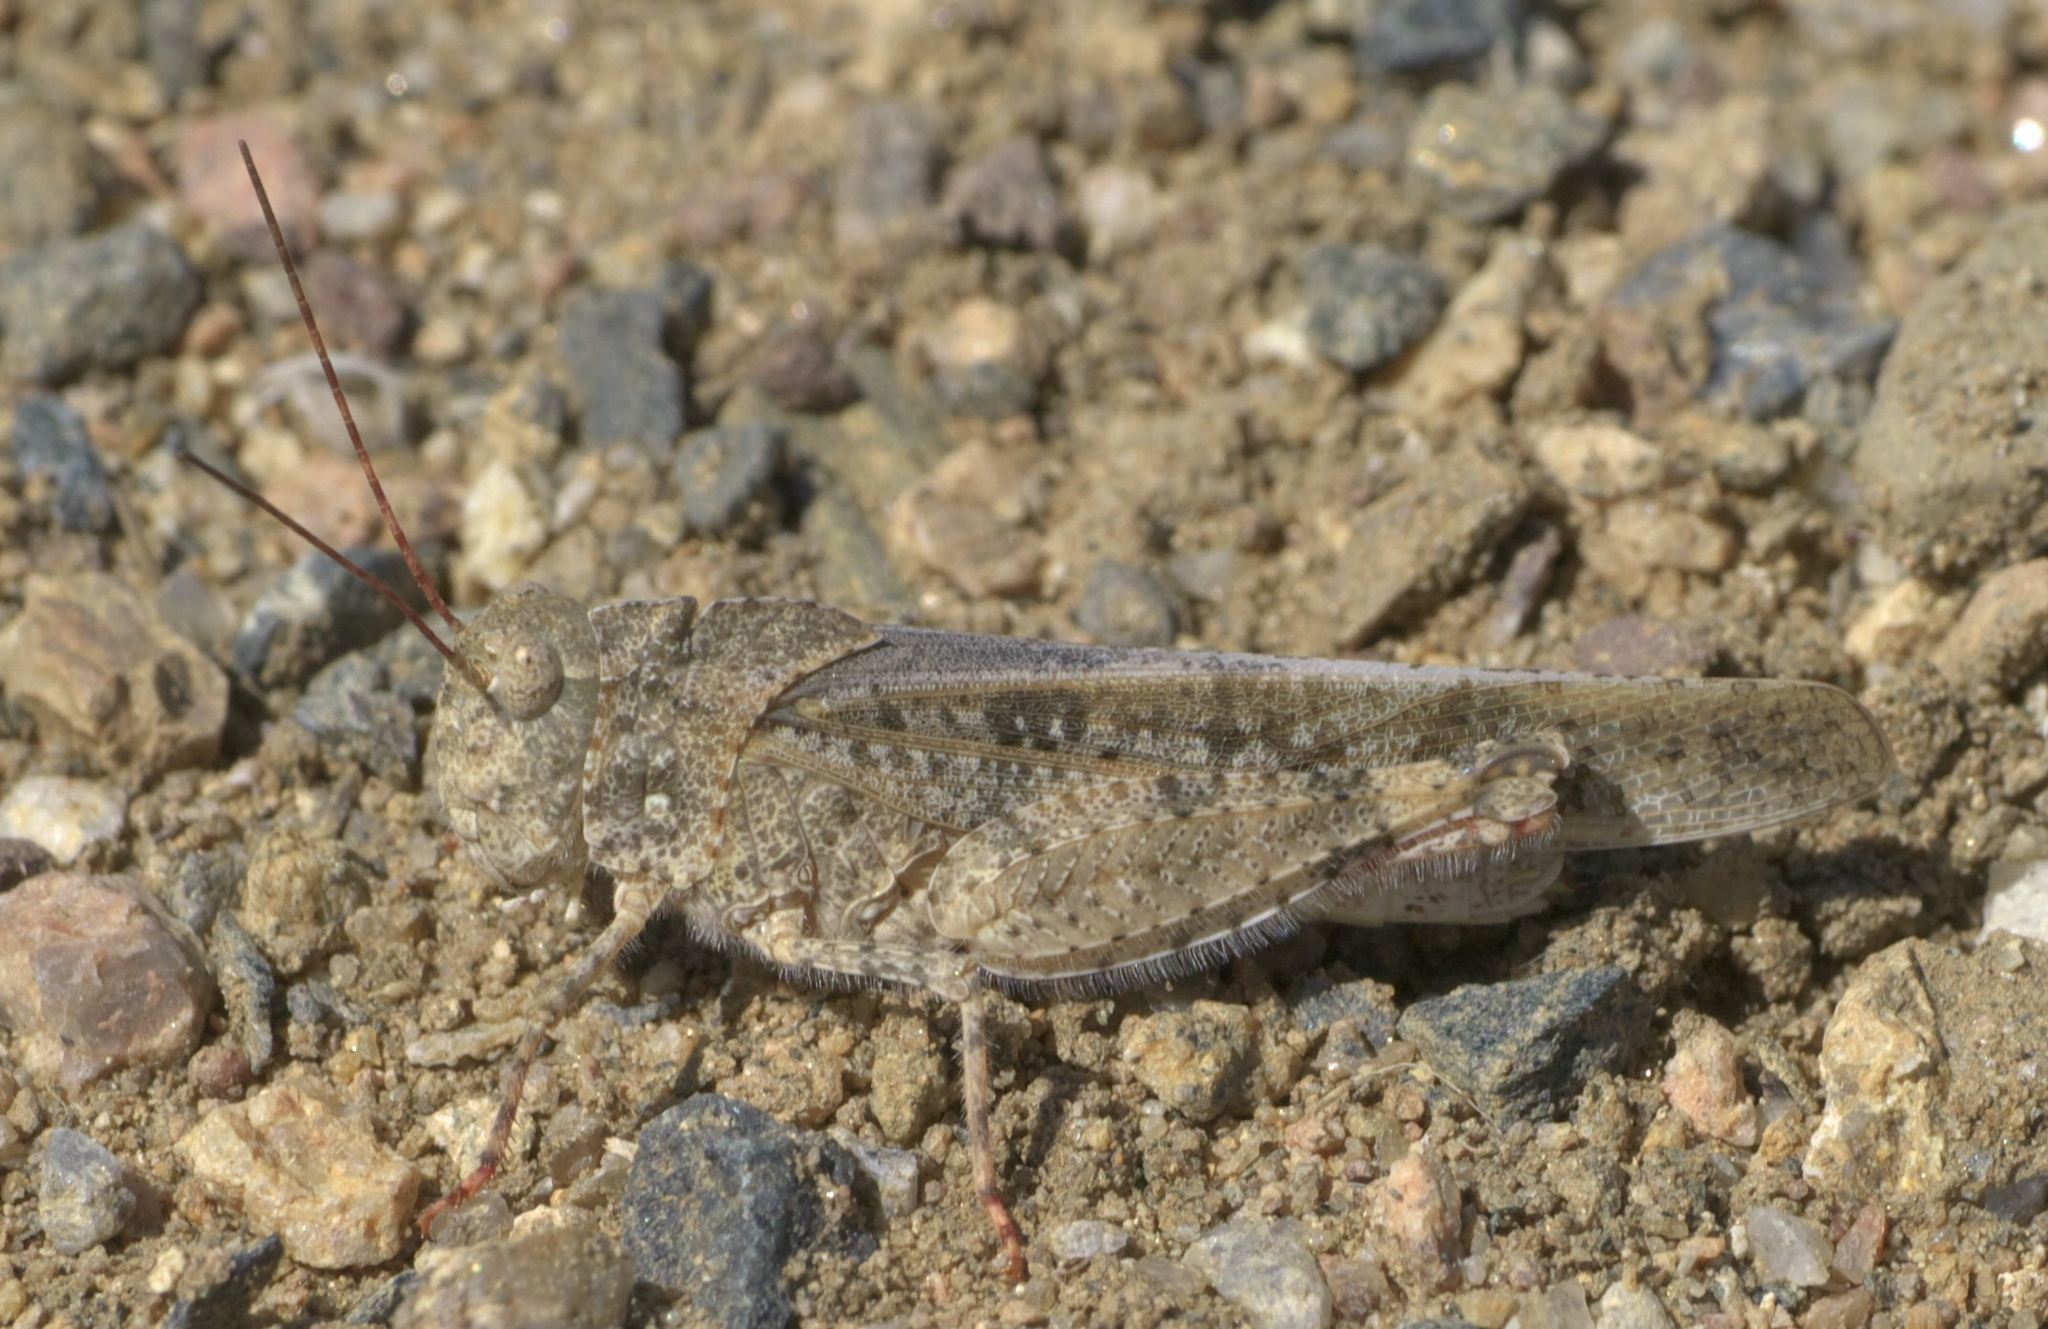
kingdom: Animalia
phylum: Arthropoda
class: Insecta
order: Orthoptera
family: Acrididae
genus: Spharagemon
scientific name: Spharagemon cristatum
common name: Ridgeback sand grasshopper
